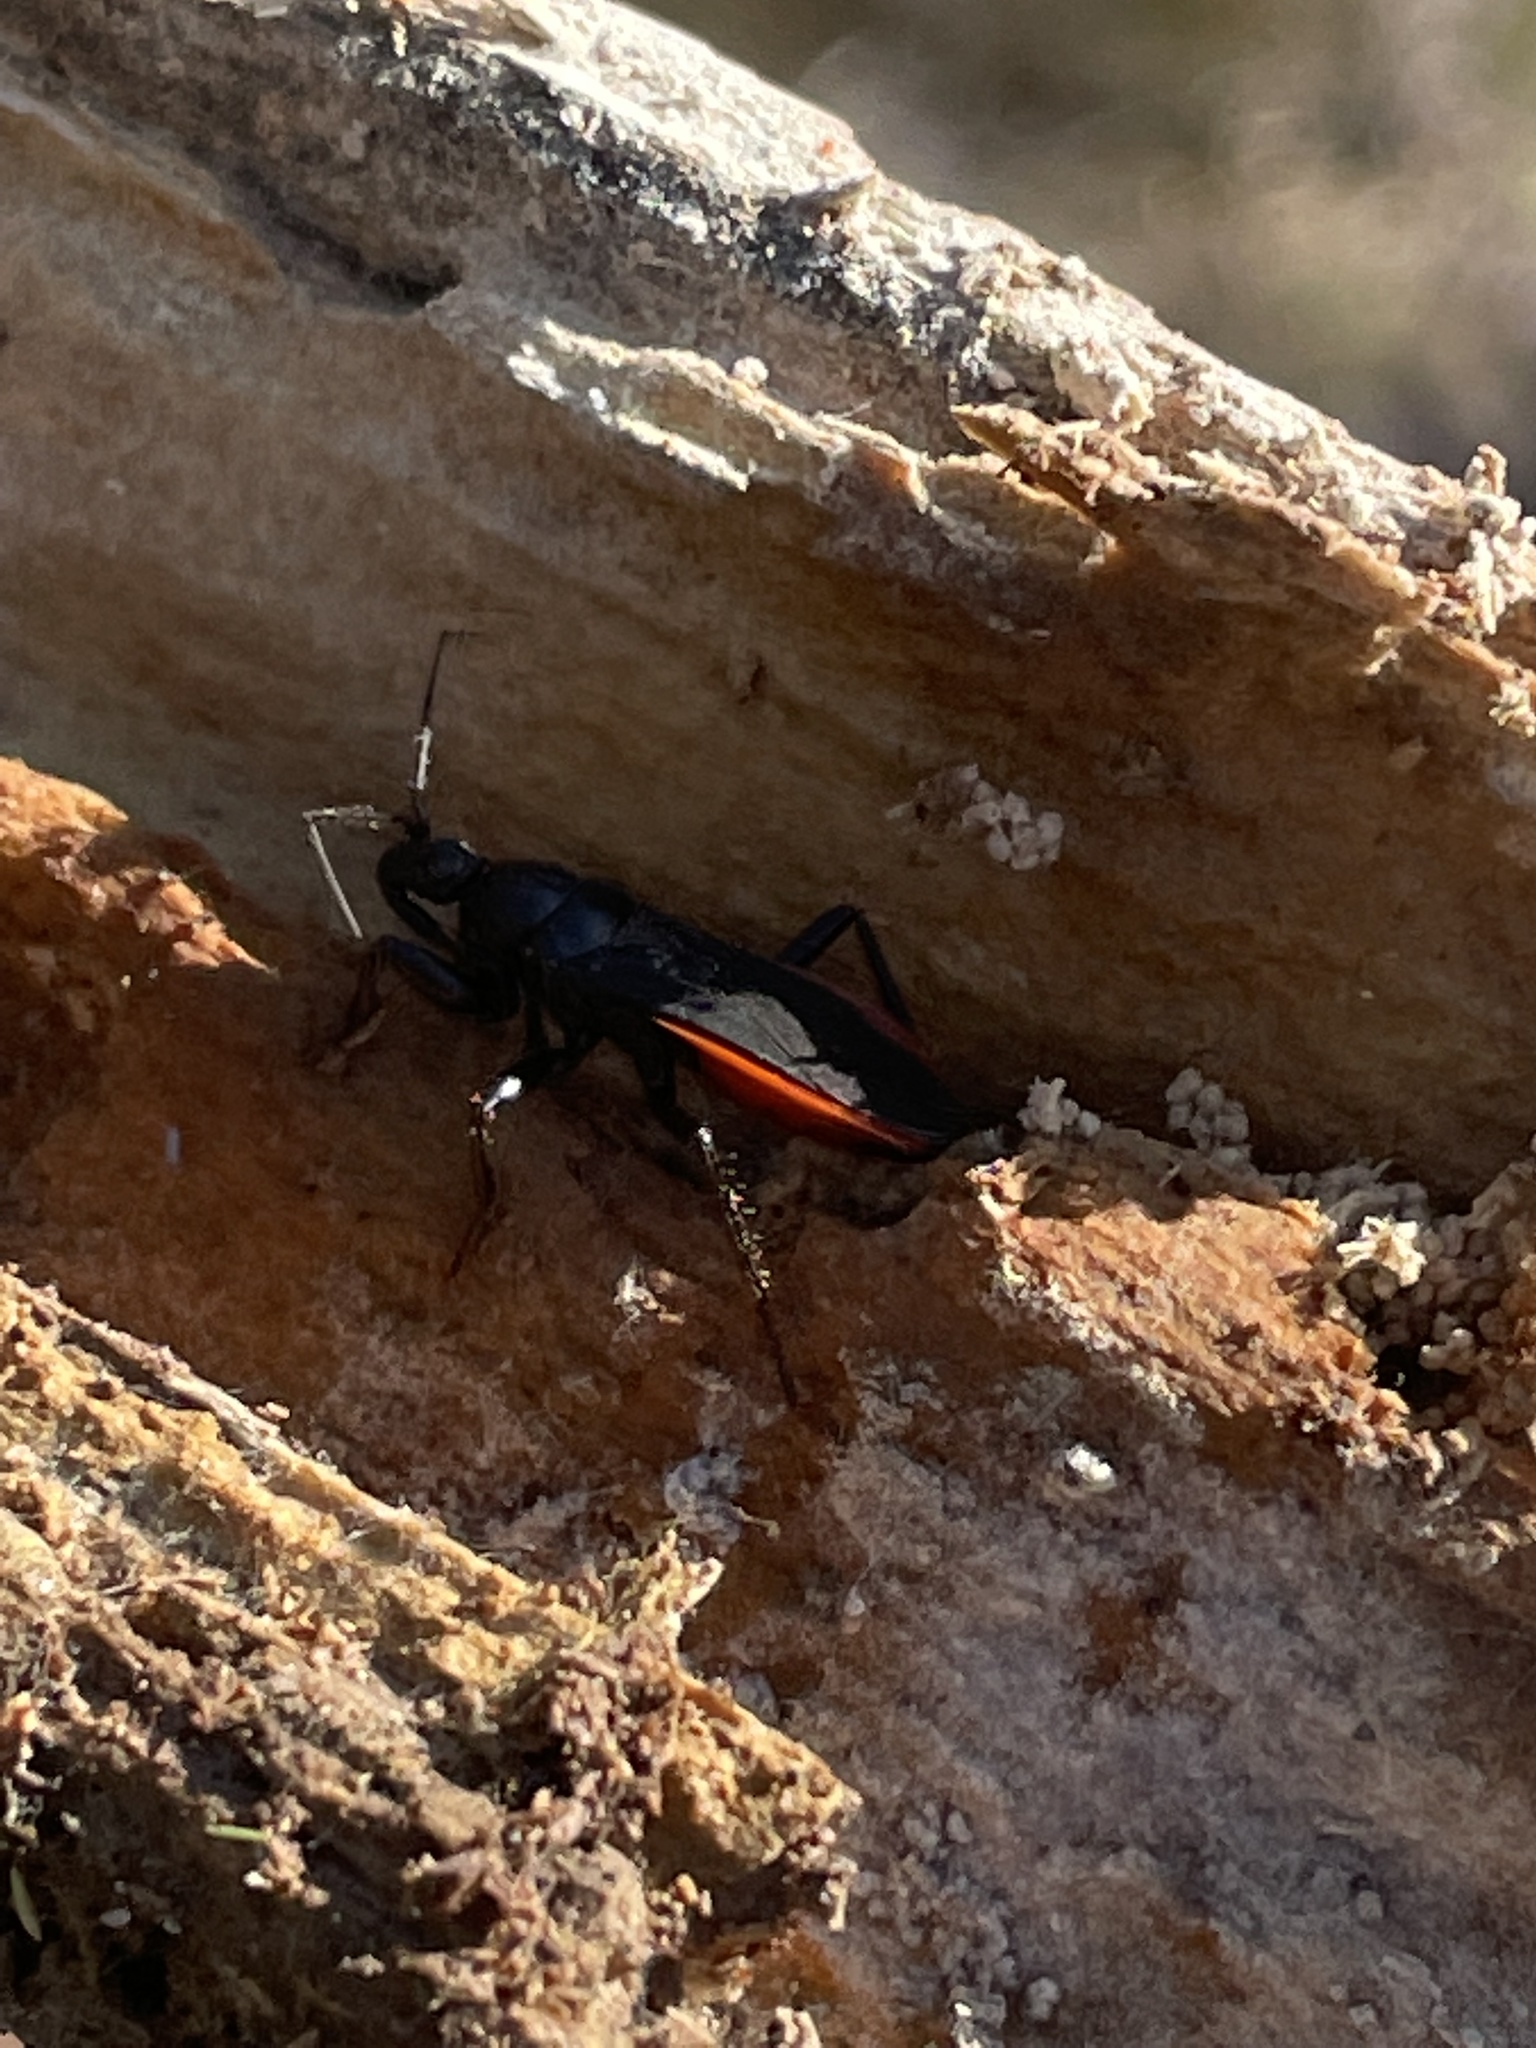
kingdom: Animalia
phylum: Arthropoda
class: Insecta
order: Hemiptera
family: Reduviidae
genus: Melanolestes
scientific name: Melanolestes picipes
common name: Assassin bug
